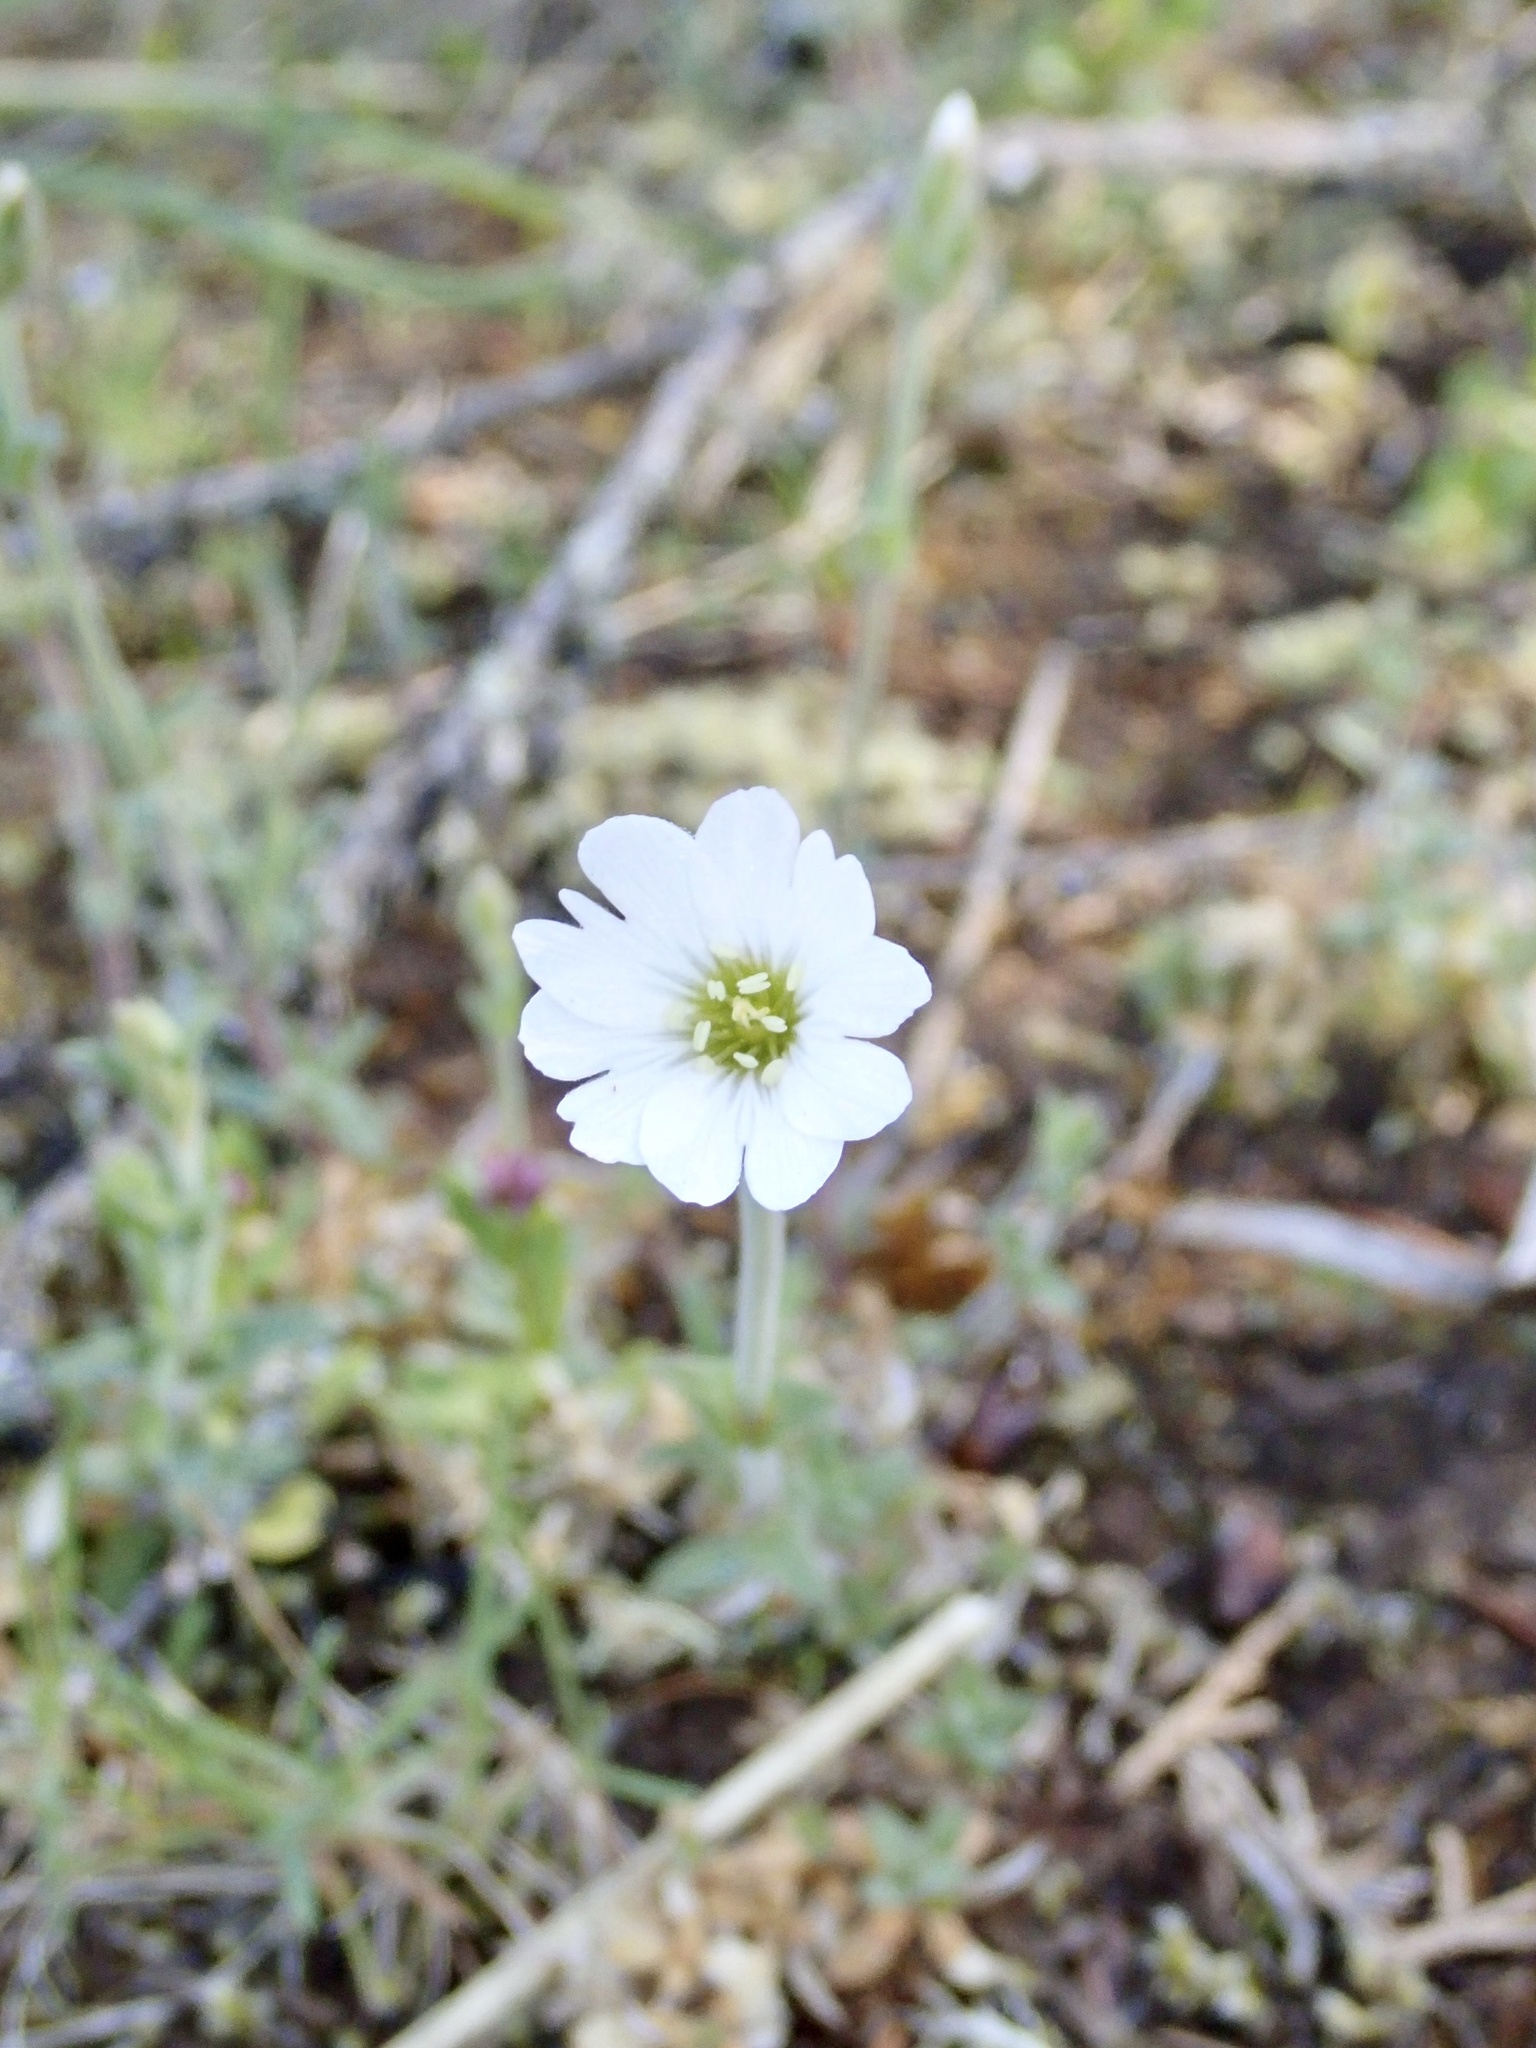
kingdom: Plantae
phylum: Tracheophyta
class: Magnoliopsida
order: Caryophyllales
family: Caryophyllaceae
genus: Cerastium
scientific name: Cerastium arvense
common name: Field mouse-ear
